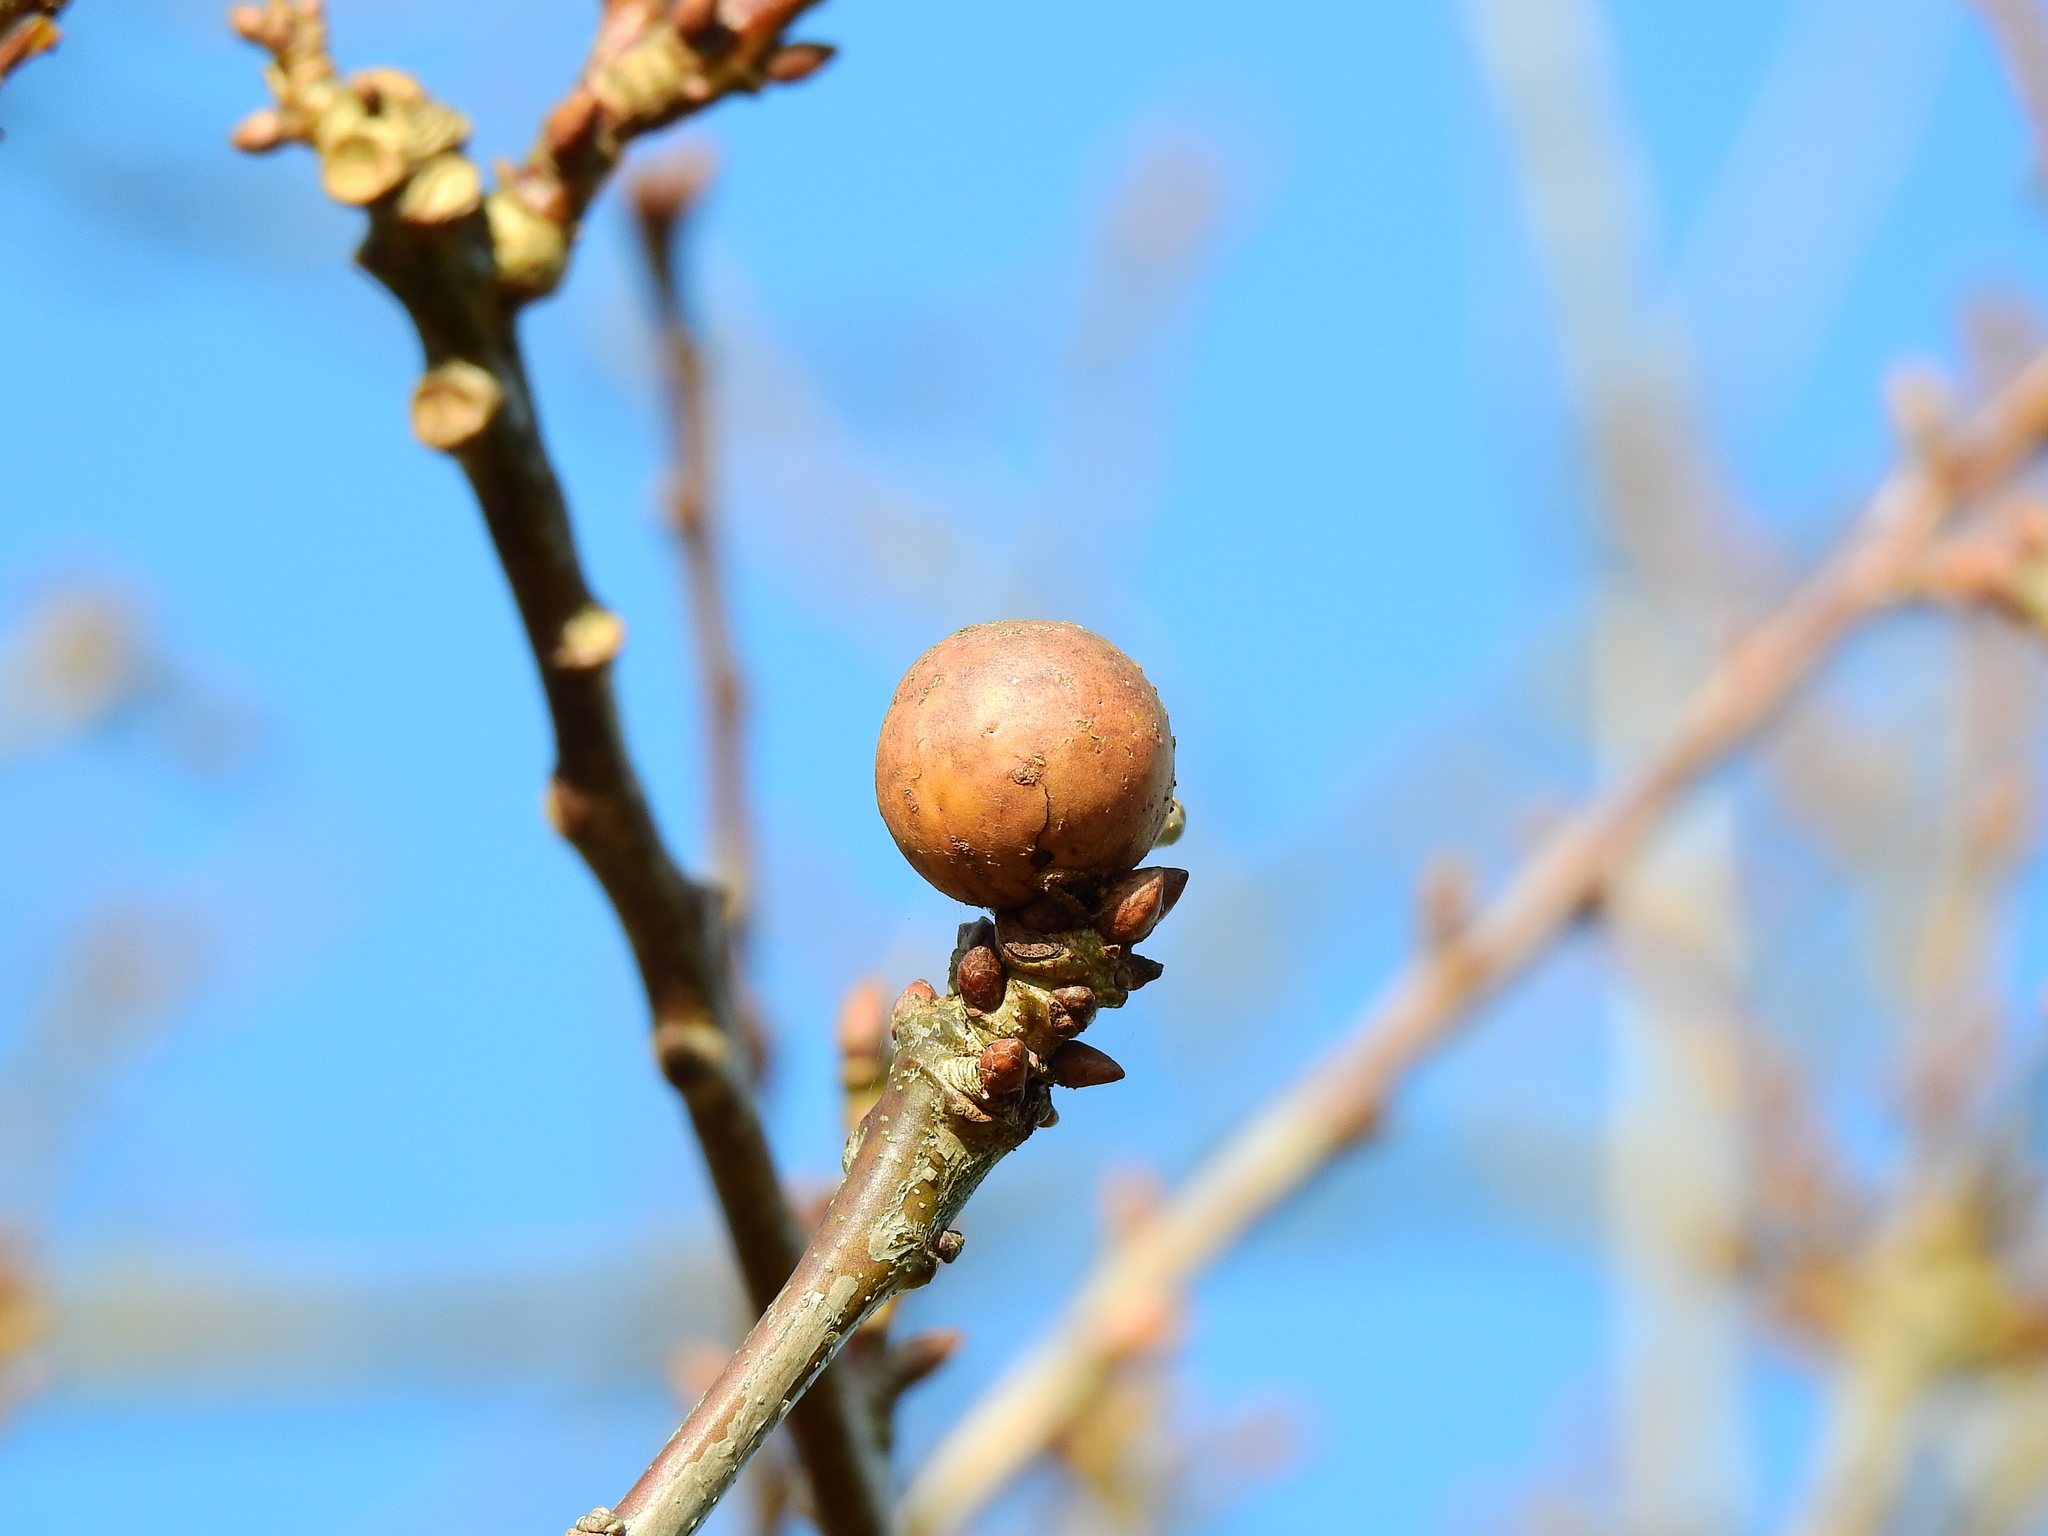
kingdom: Animalia
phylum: Arthropoda
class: Insecta
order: Hymenoptera
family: Cynipidae
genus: Andricus
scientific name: Andricus kollari
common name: Marble gall
